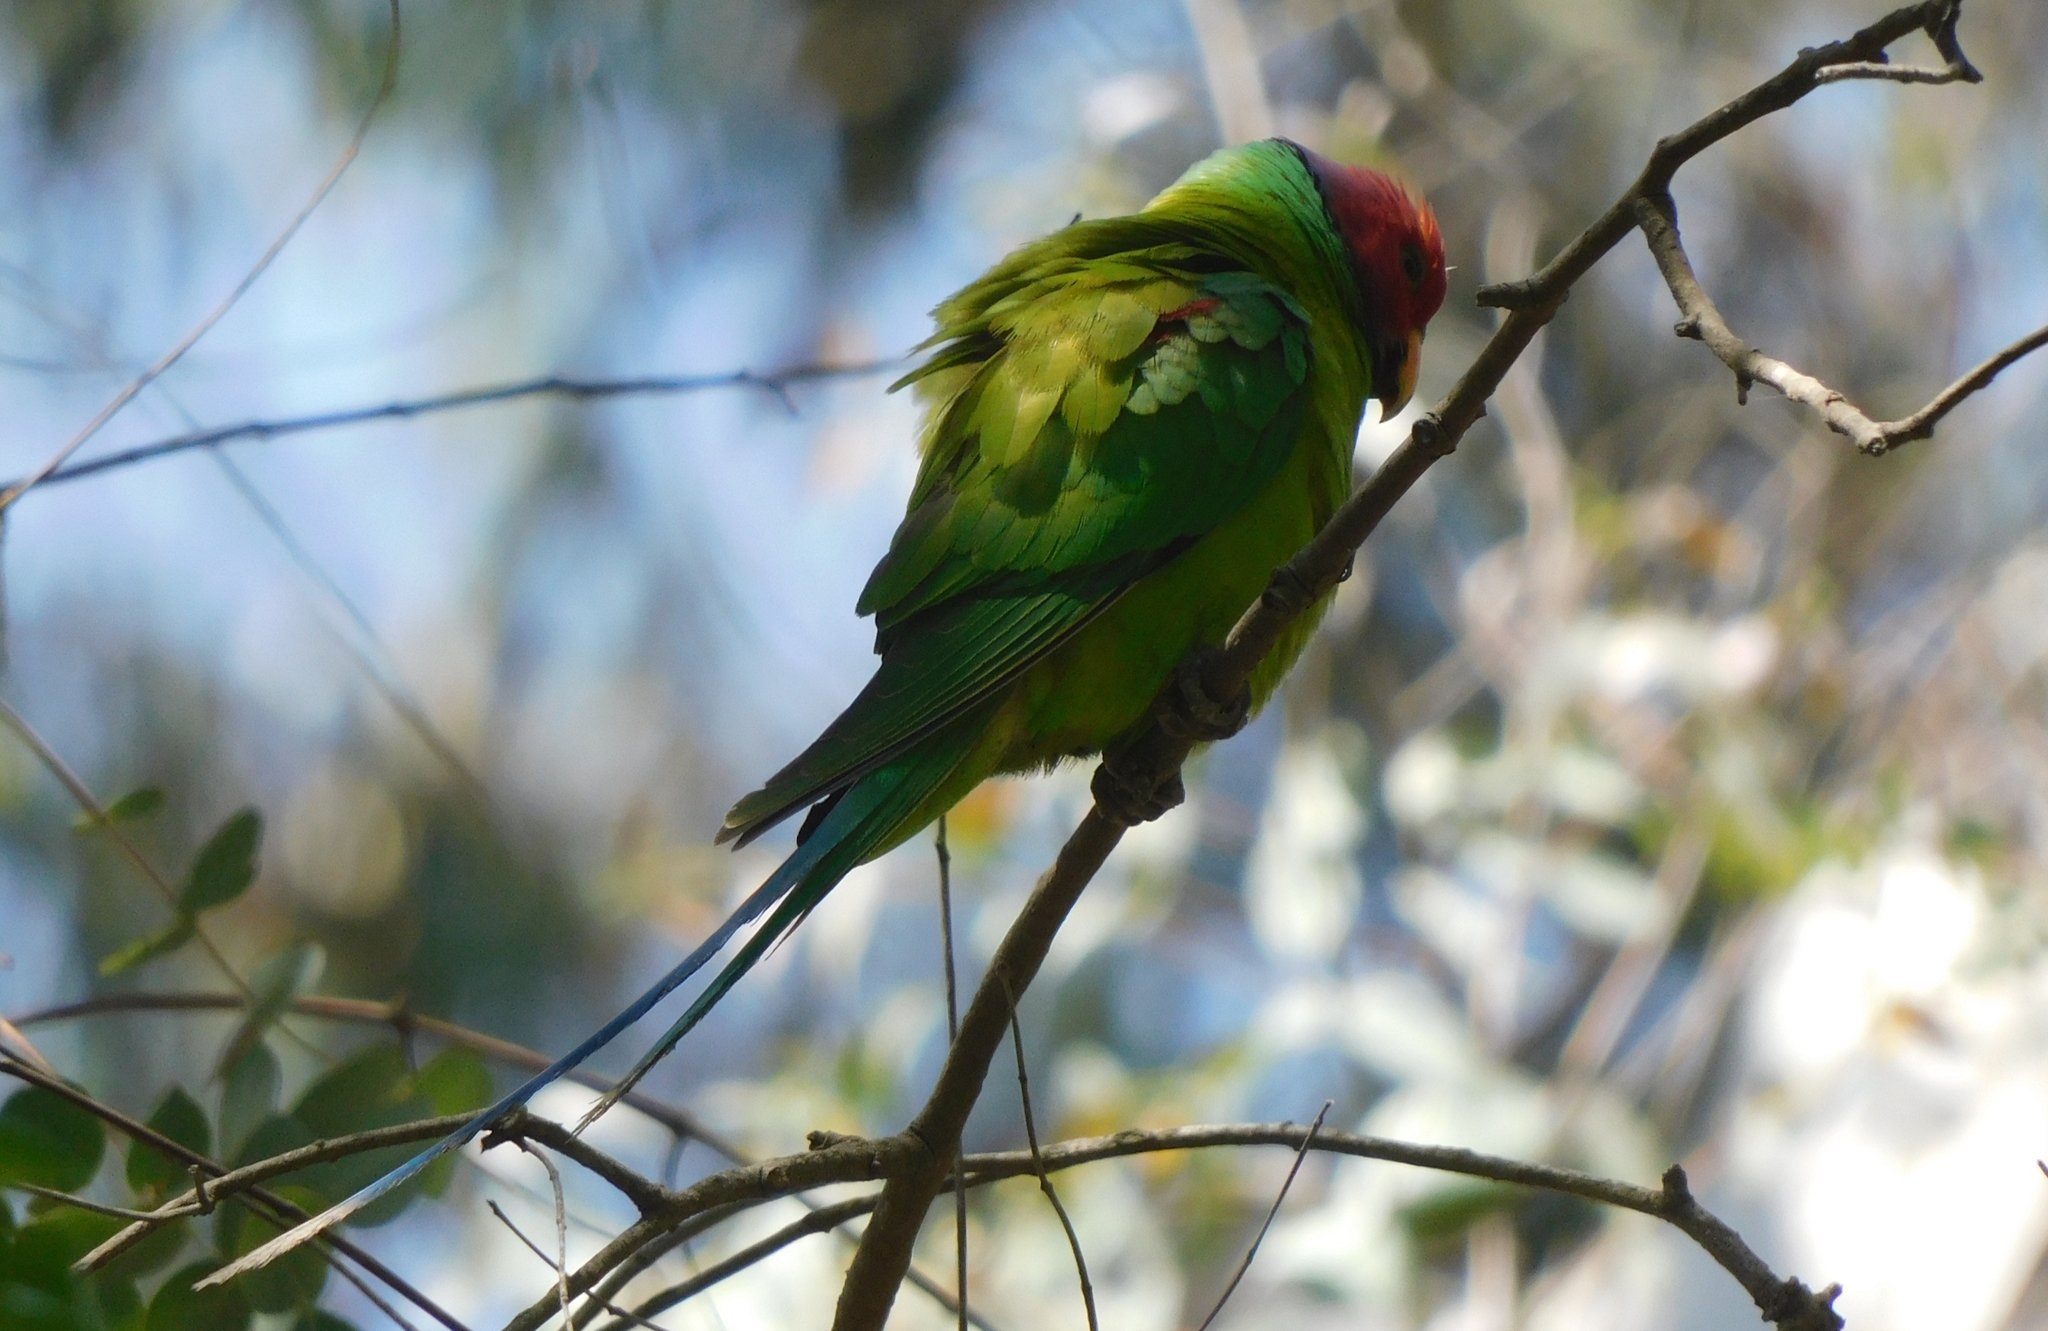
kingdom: Animalia
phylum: Chordata
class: Aves
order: Psittaciformes
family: Psittacidae
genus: Psittacula
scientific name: Psittacula cyanocephala
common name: Plum-headed parakeet
